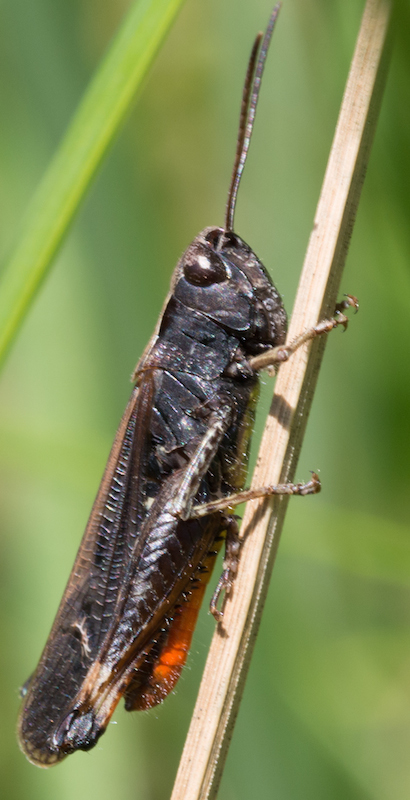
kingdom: Animalia
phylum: Arthropoda
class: Insecta
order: Orthoptera
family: Acrididae
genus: Omocestus
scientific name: Omocestus rufipes
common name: Woodland grasshopper
